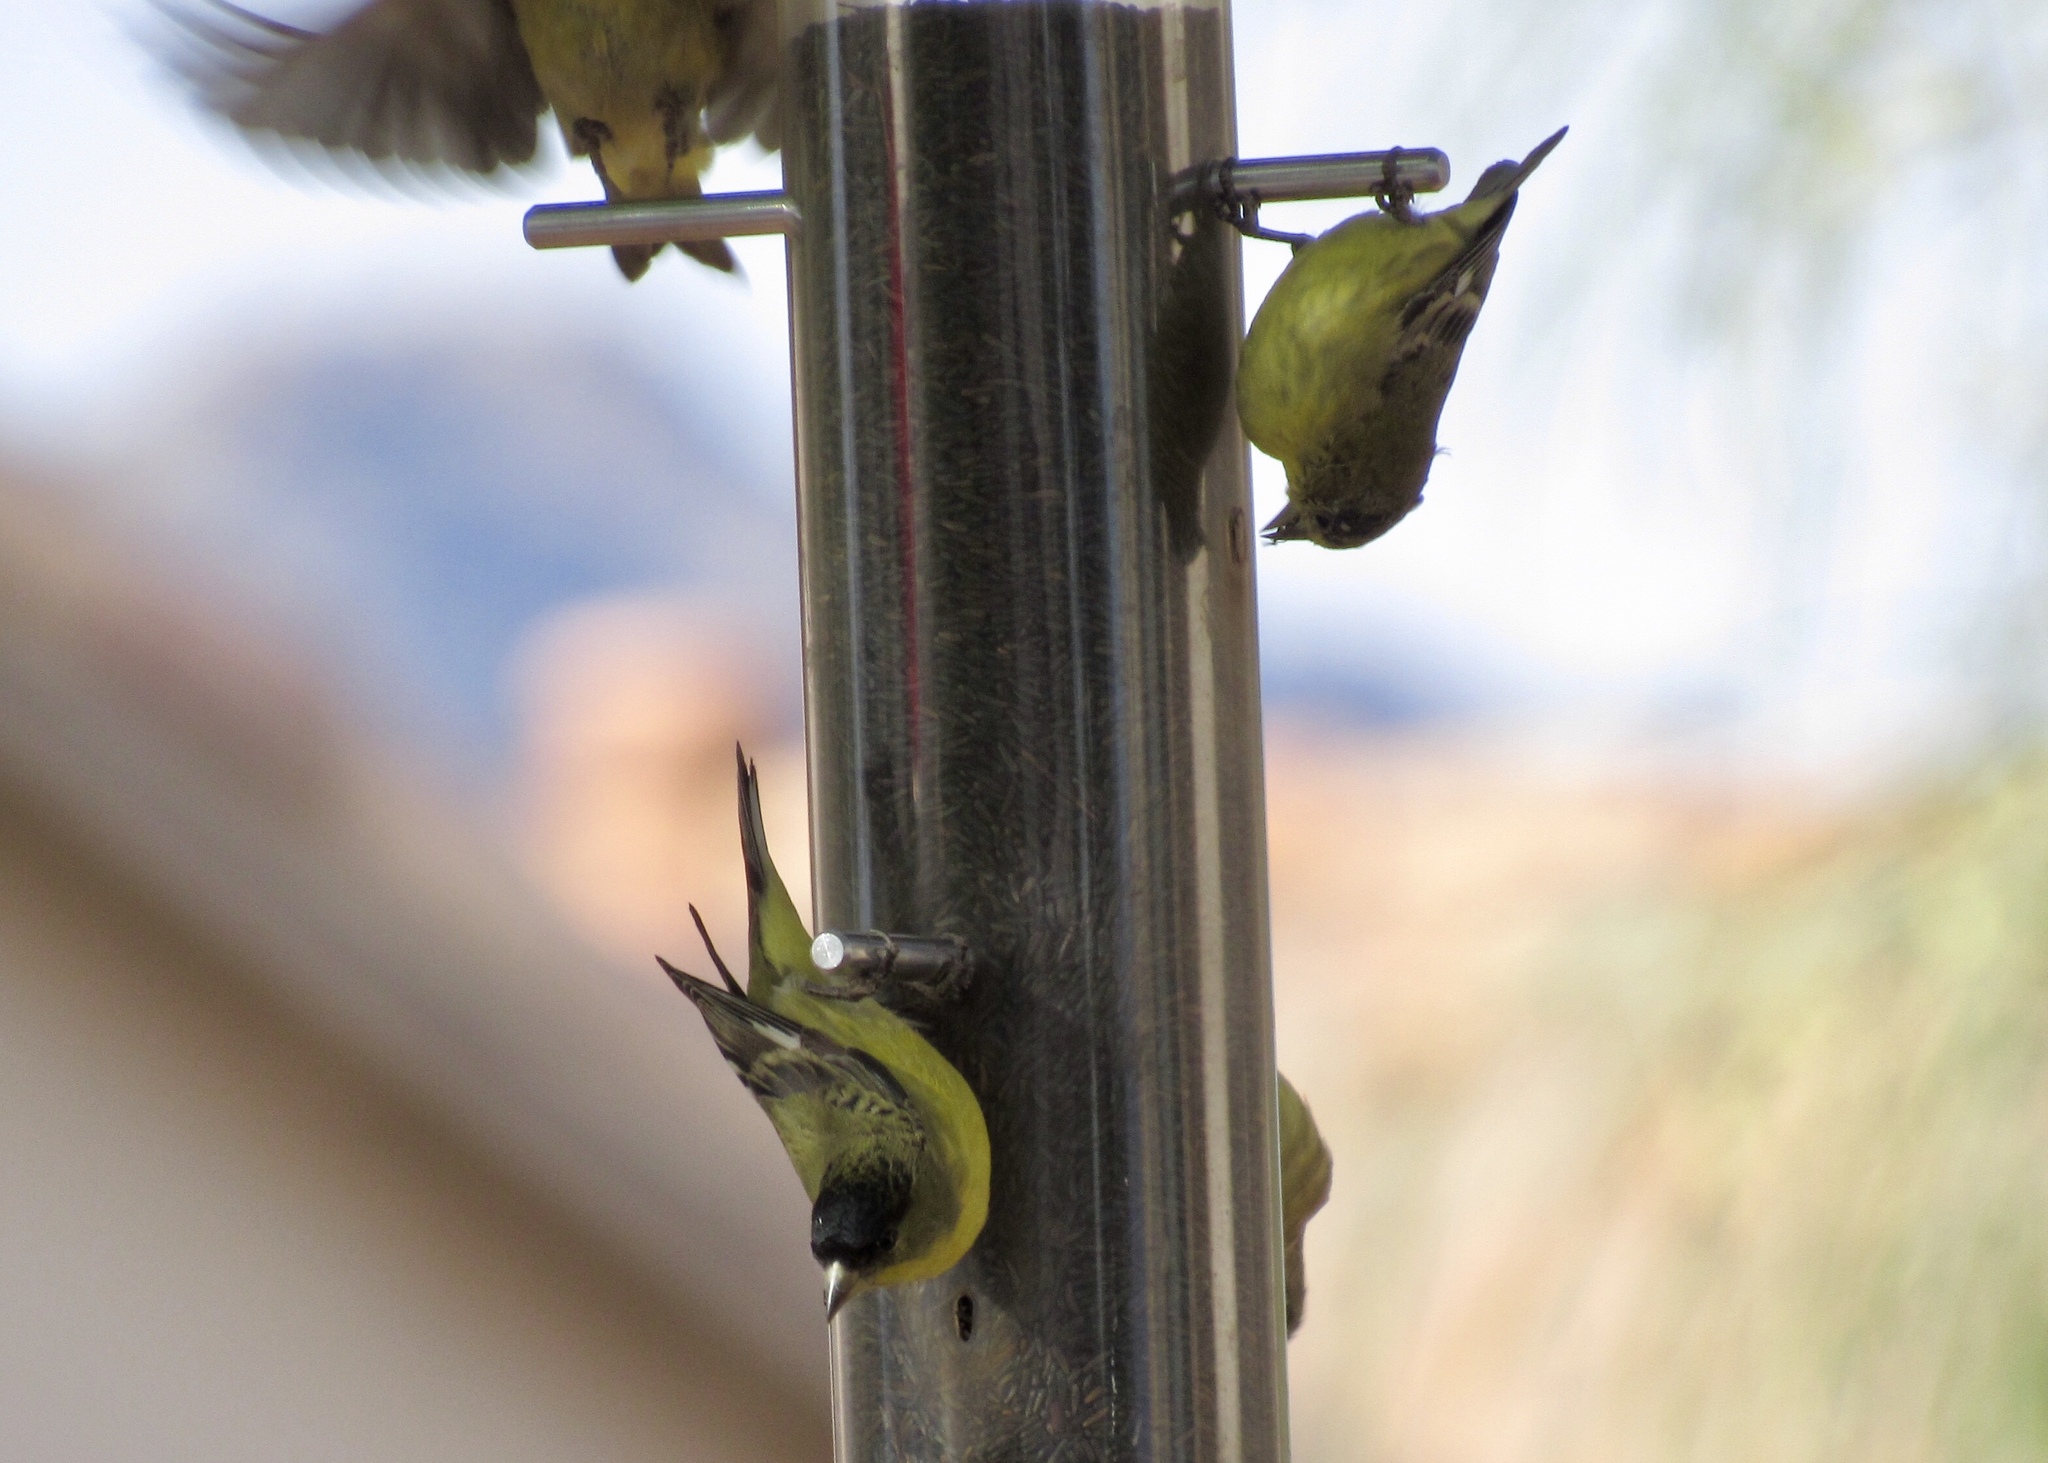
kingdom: Animalia
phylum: Chordata
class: Aves
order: Passeriformes
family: Fringillidae
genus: Spinus
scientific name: Spinus psaltria
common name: Lesser goldfinch
